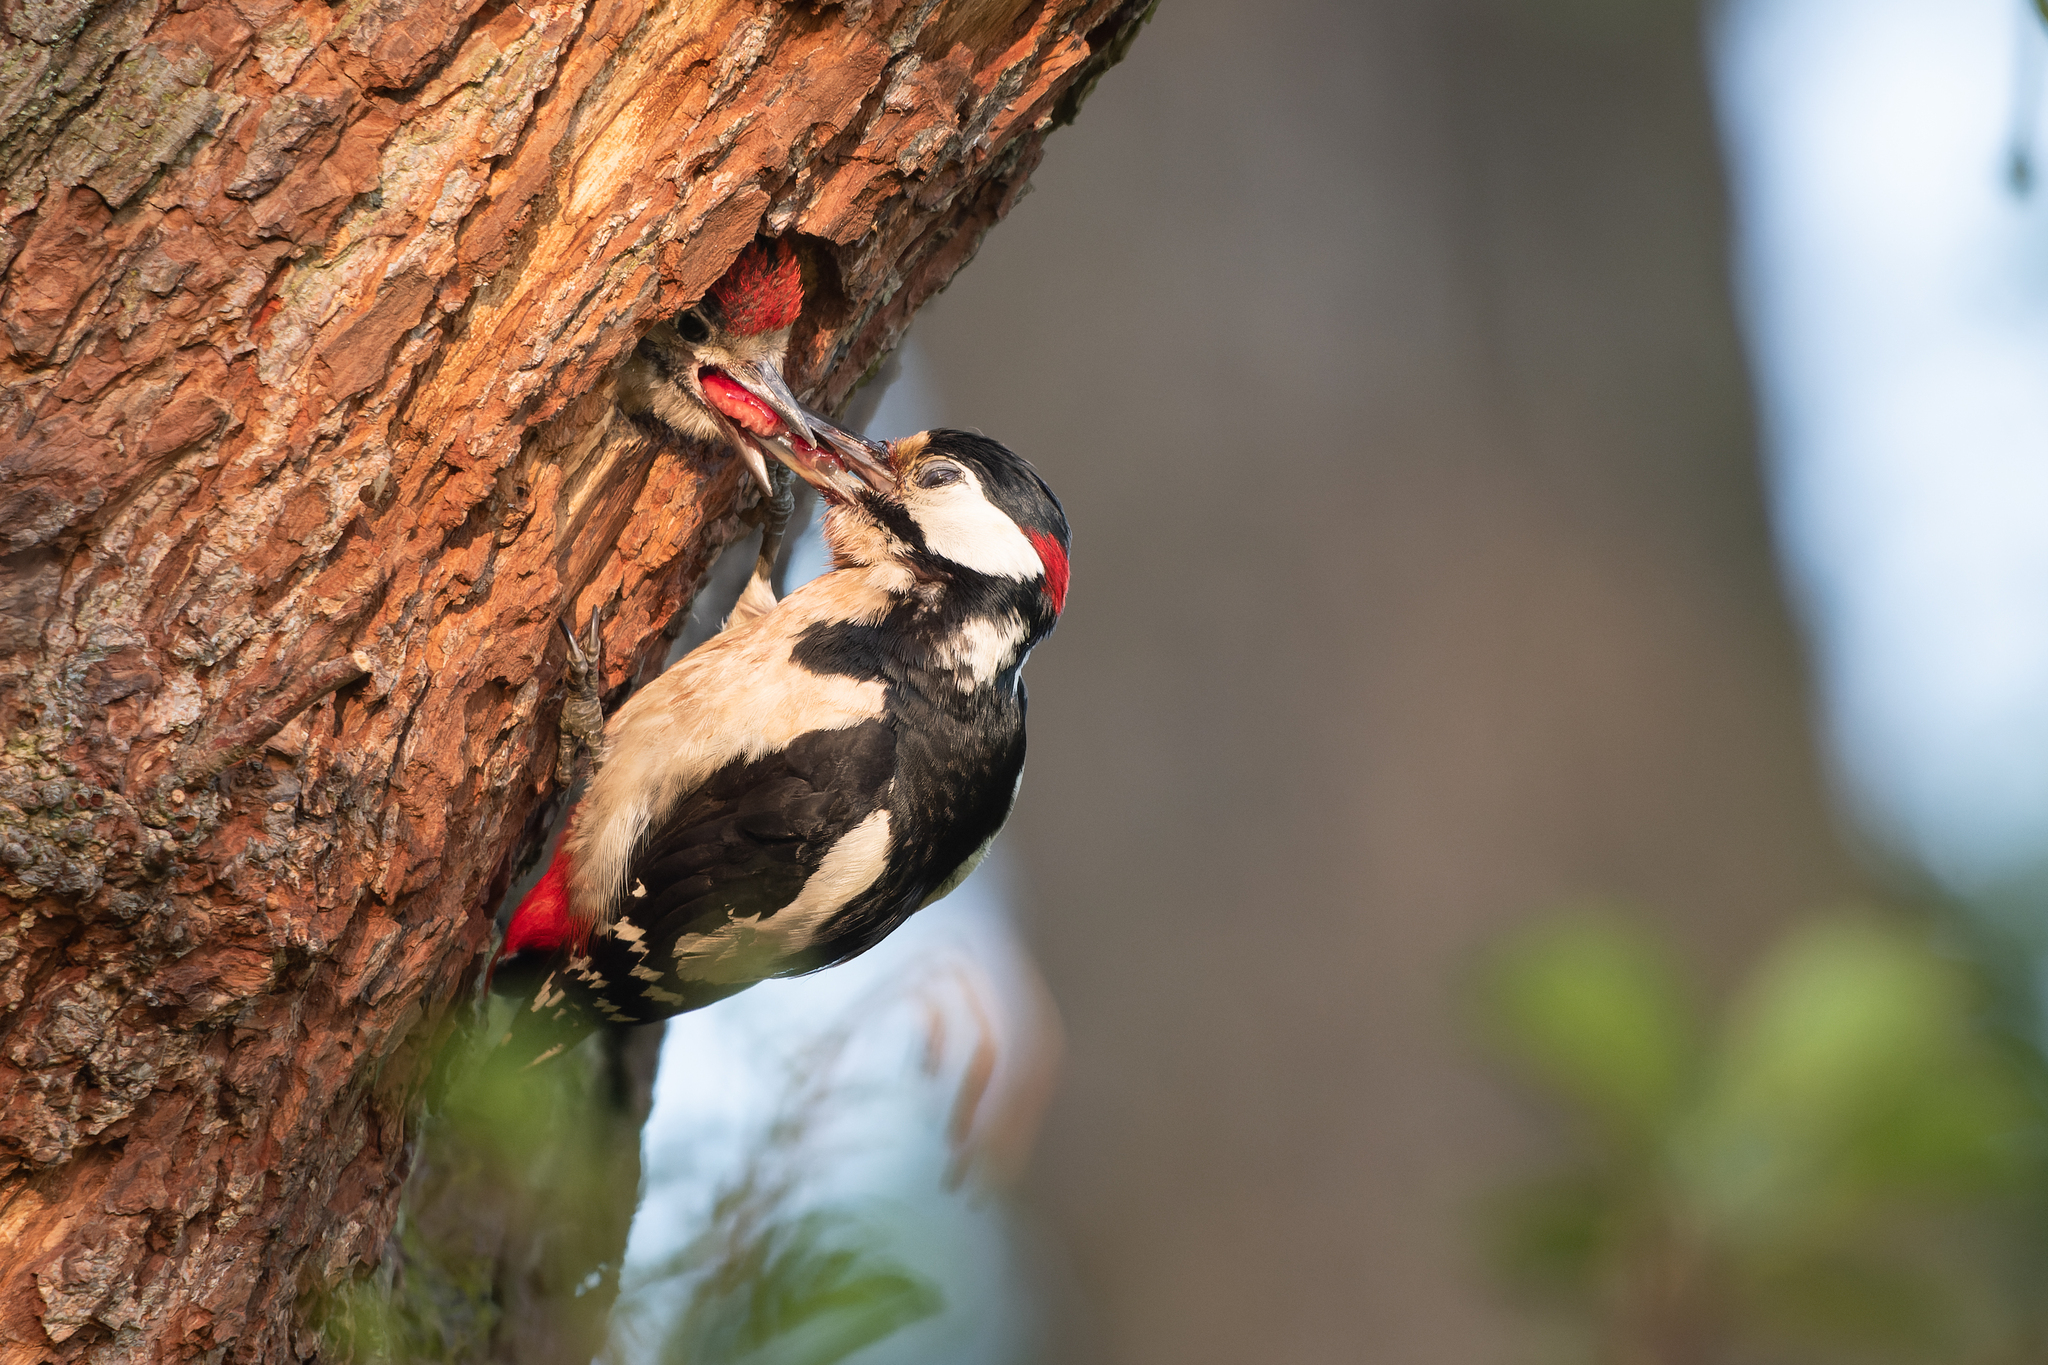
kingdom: Animalia
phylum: Chordata
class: Aves
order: Piciformes
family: Picidae
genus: Dendrocopos
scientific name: Dendrocopos major
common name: Great spotted woodpecker
